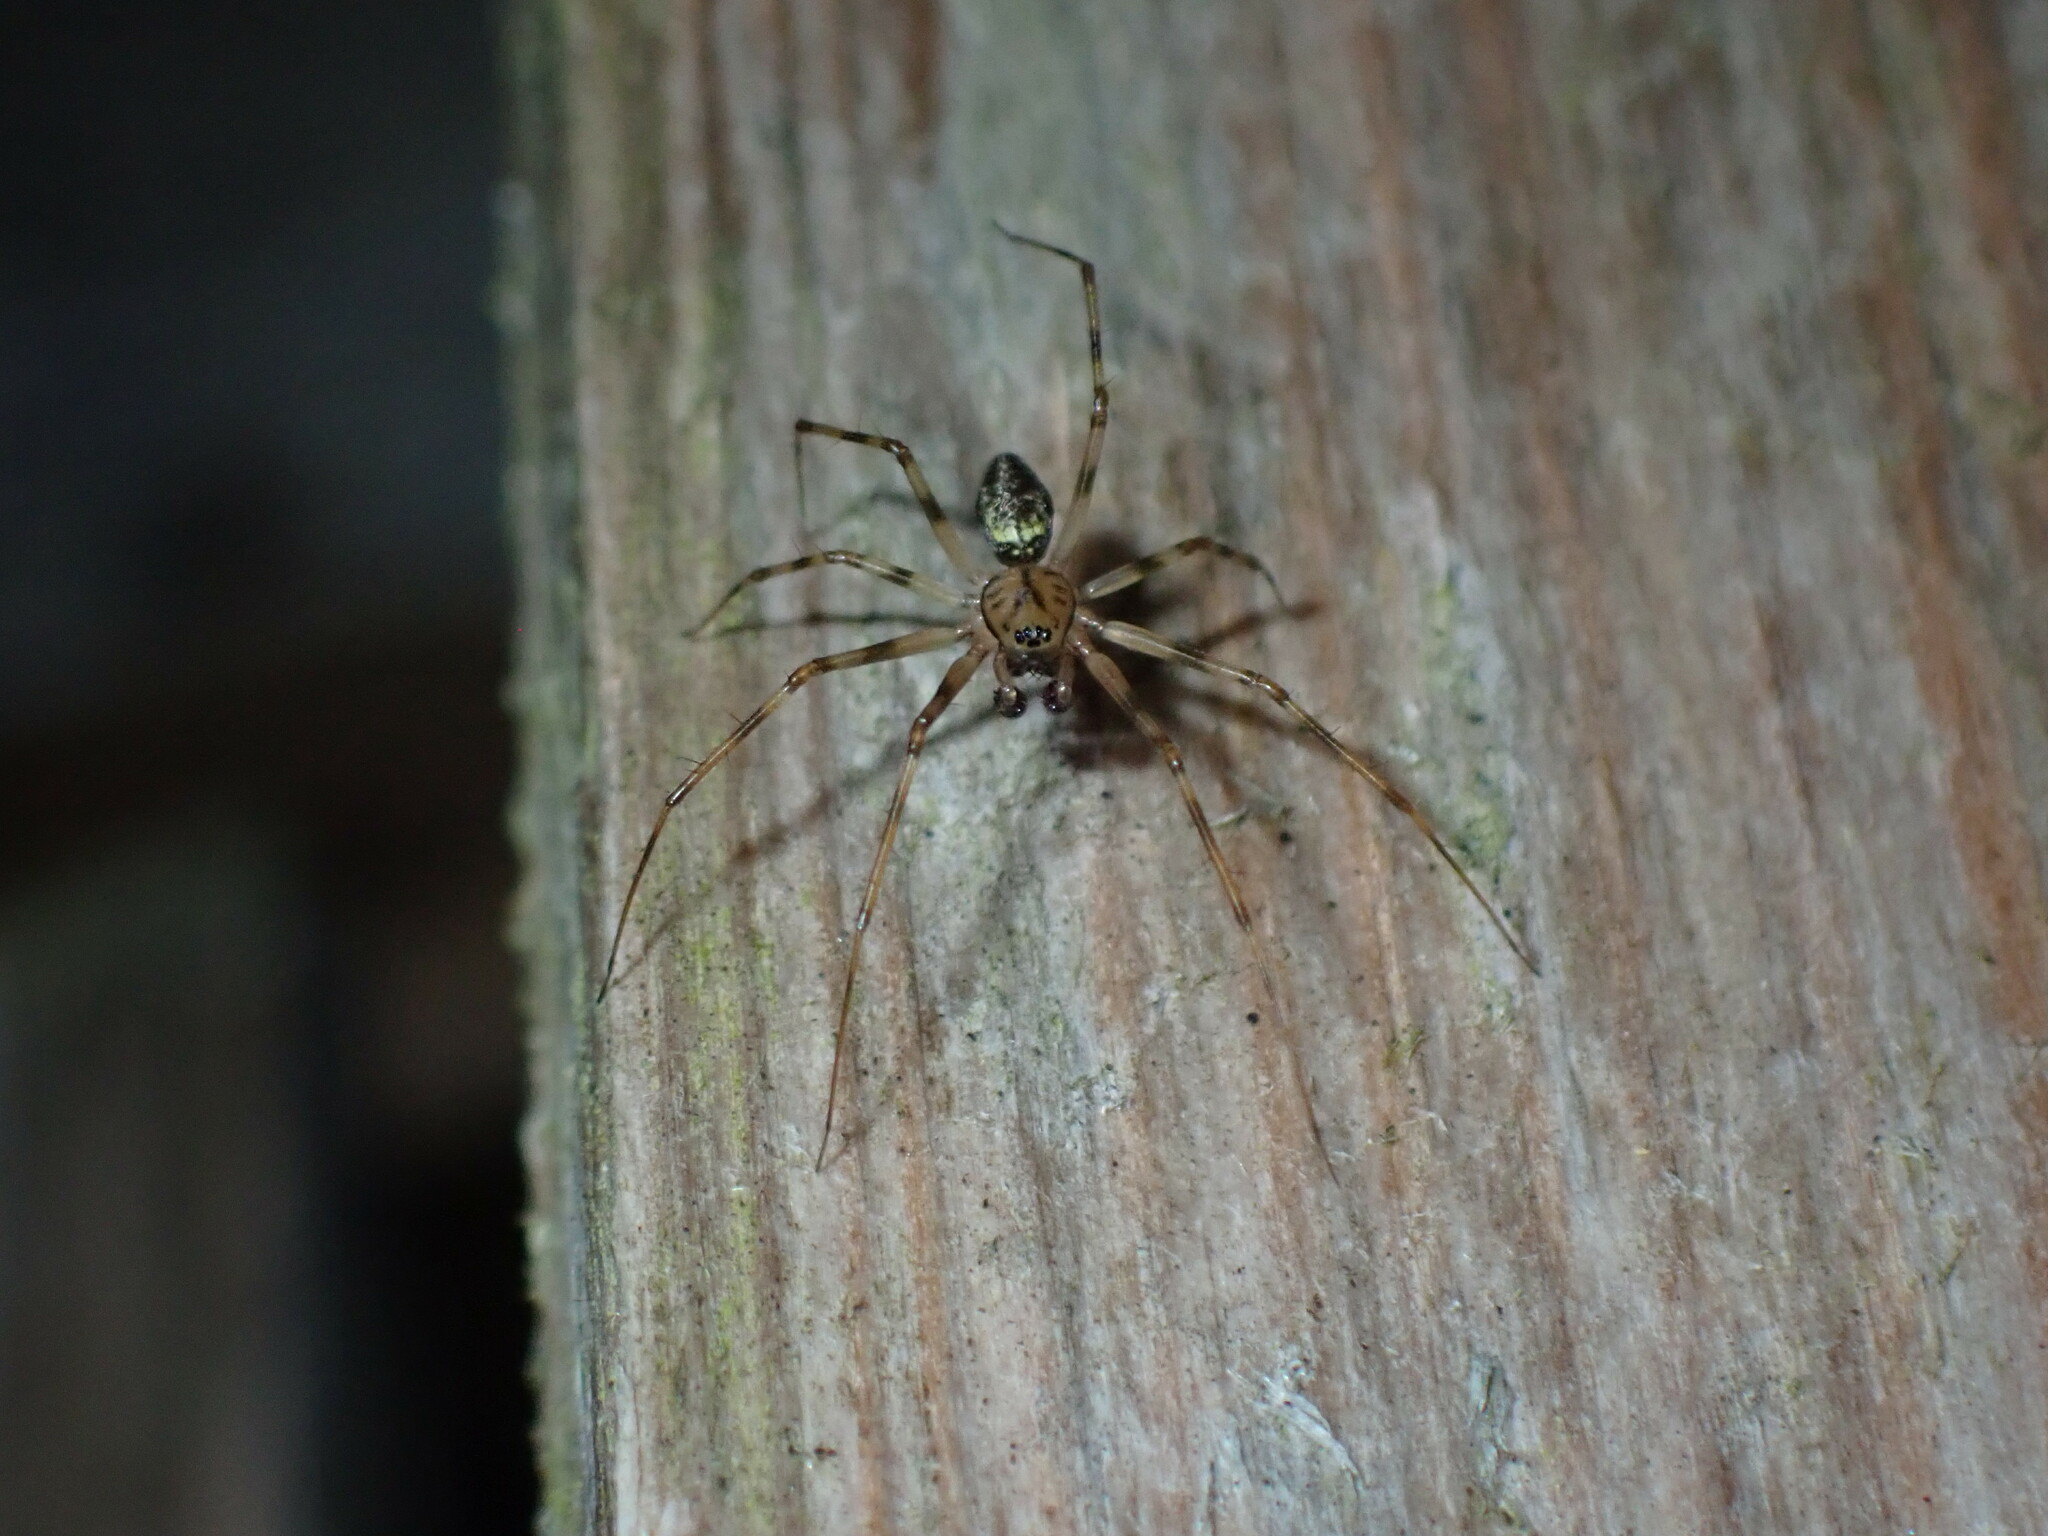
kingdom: Animalia
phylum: Arthropoda
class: Arachnida
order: Araneae
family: Linyphiidae
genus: Drapetisca
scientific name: Drapetisca socialis
